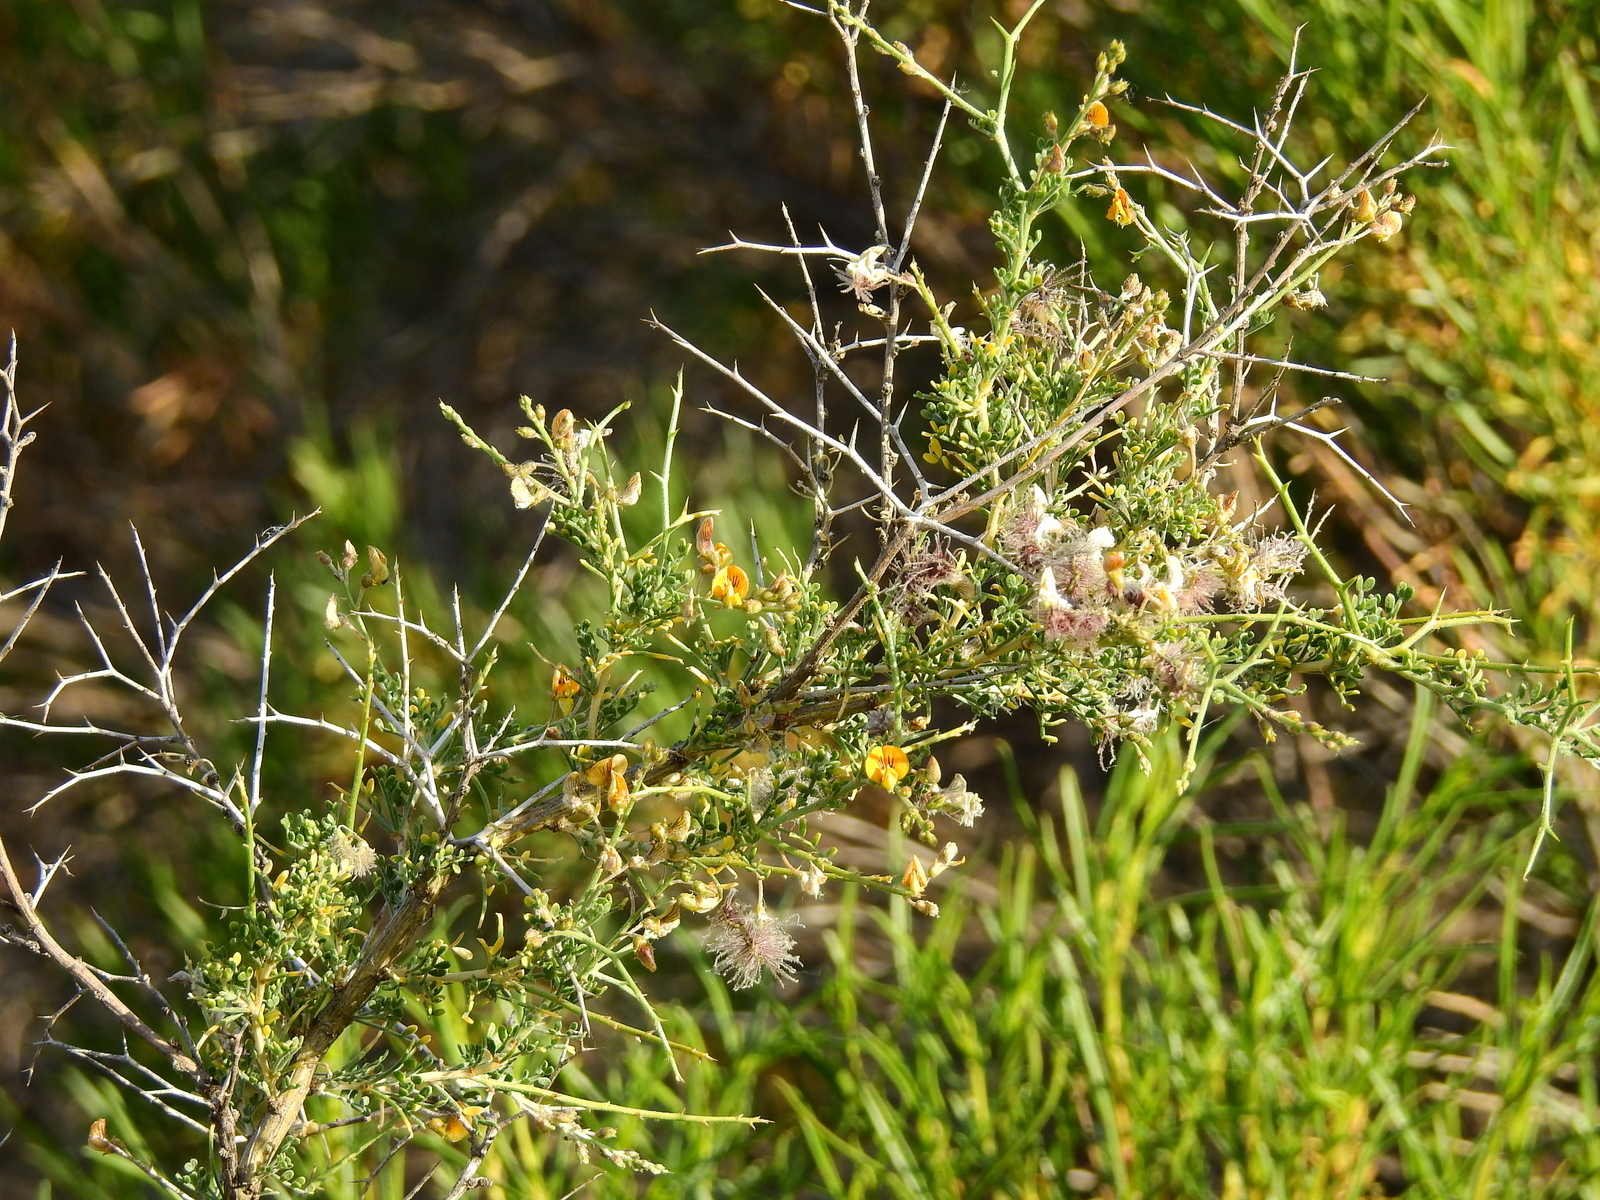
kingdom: Plantae
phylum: Tracheophyta
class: Magnoliopsida
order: Fabales
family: Fabaceae
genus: Adesmia
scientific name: Adesmia trijuga
